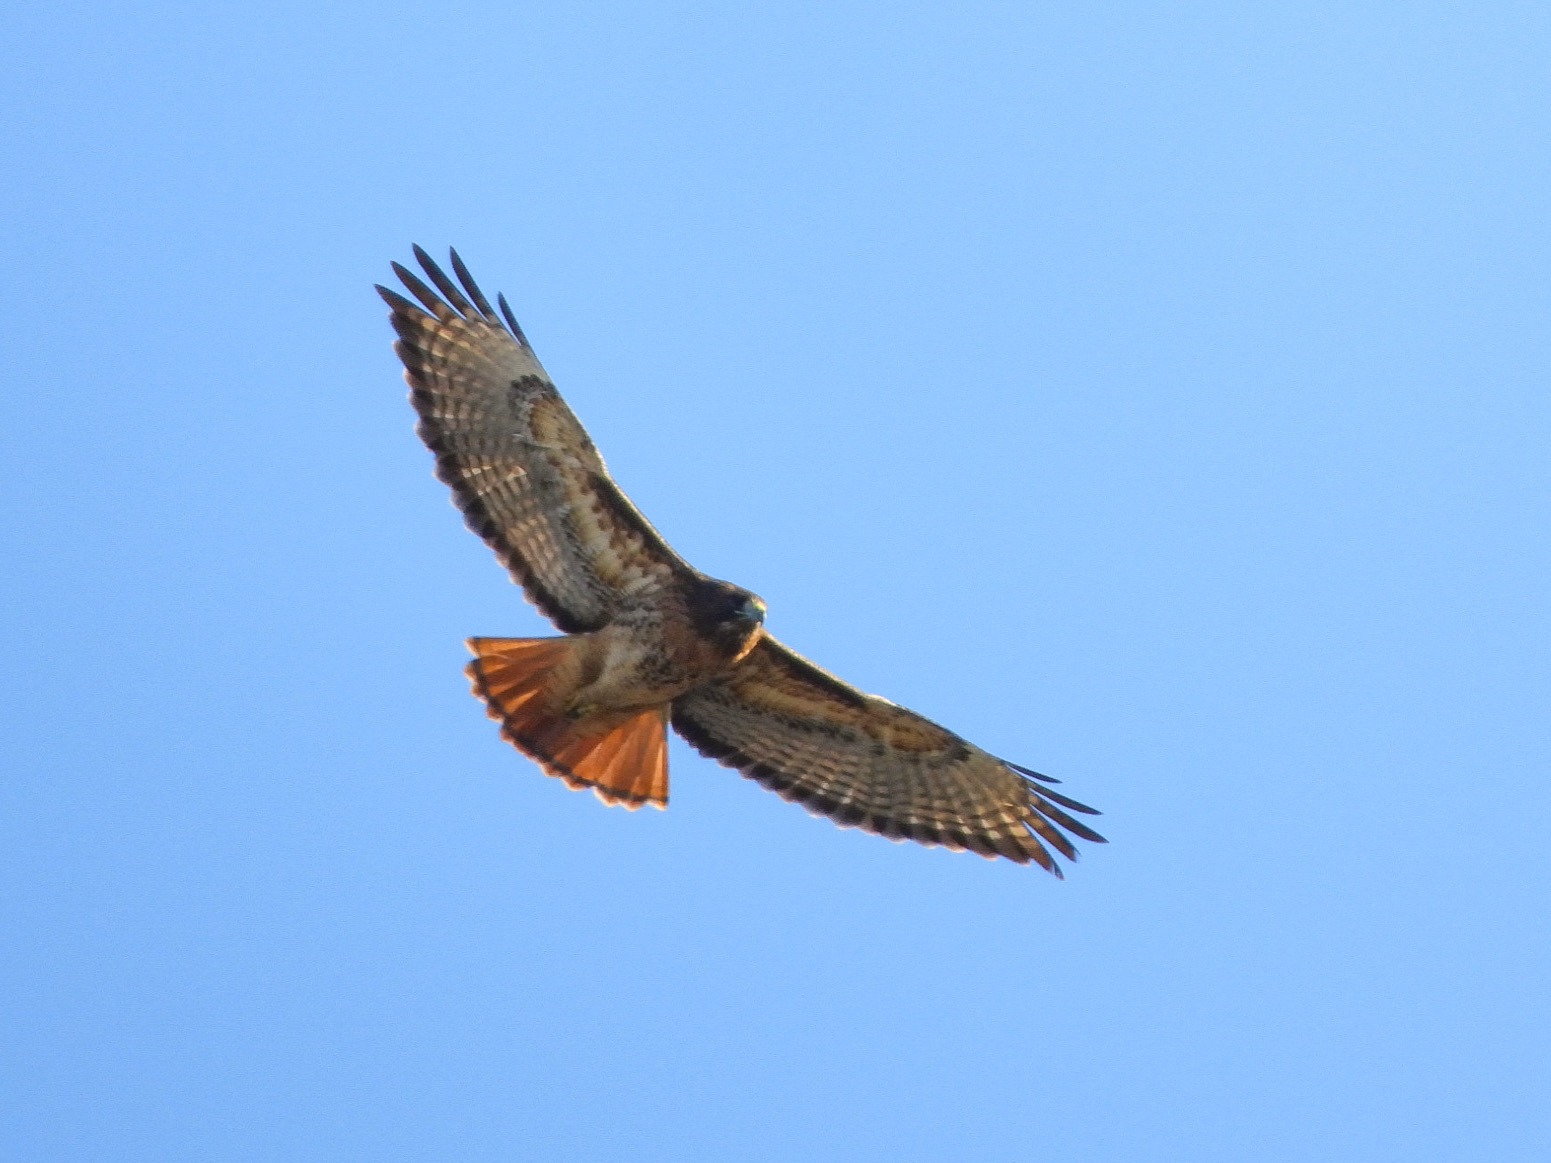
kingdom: Animalia
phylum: Chordata
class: Aves
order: Accipitriformes
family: Accipitridae
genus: Buteo
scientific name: Buteo jamaicensis
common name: Red-tailed hawk
